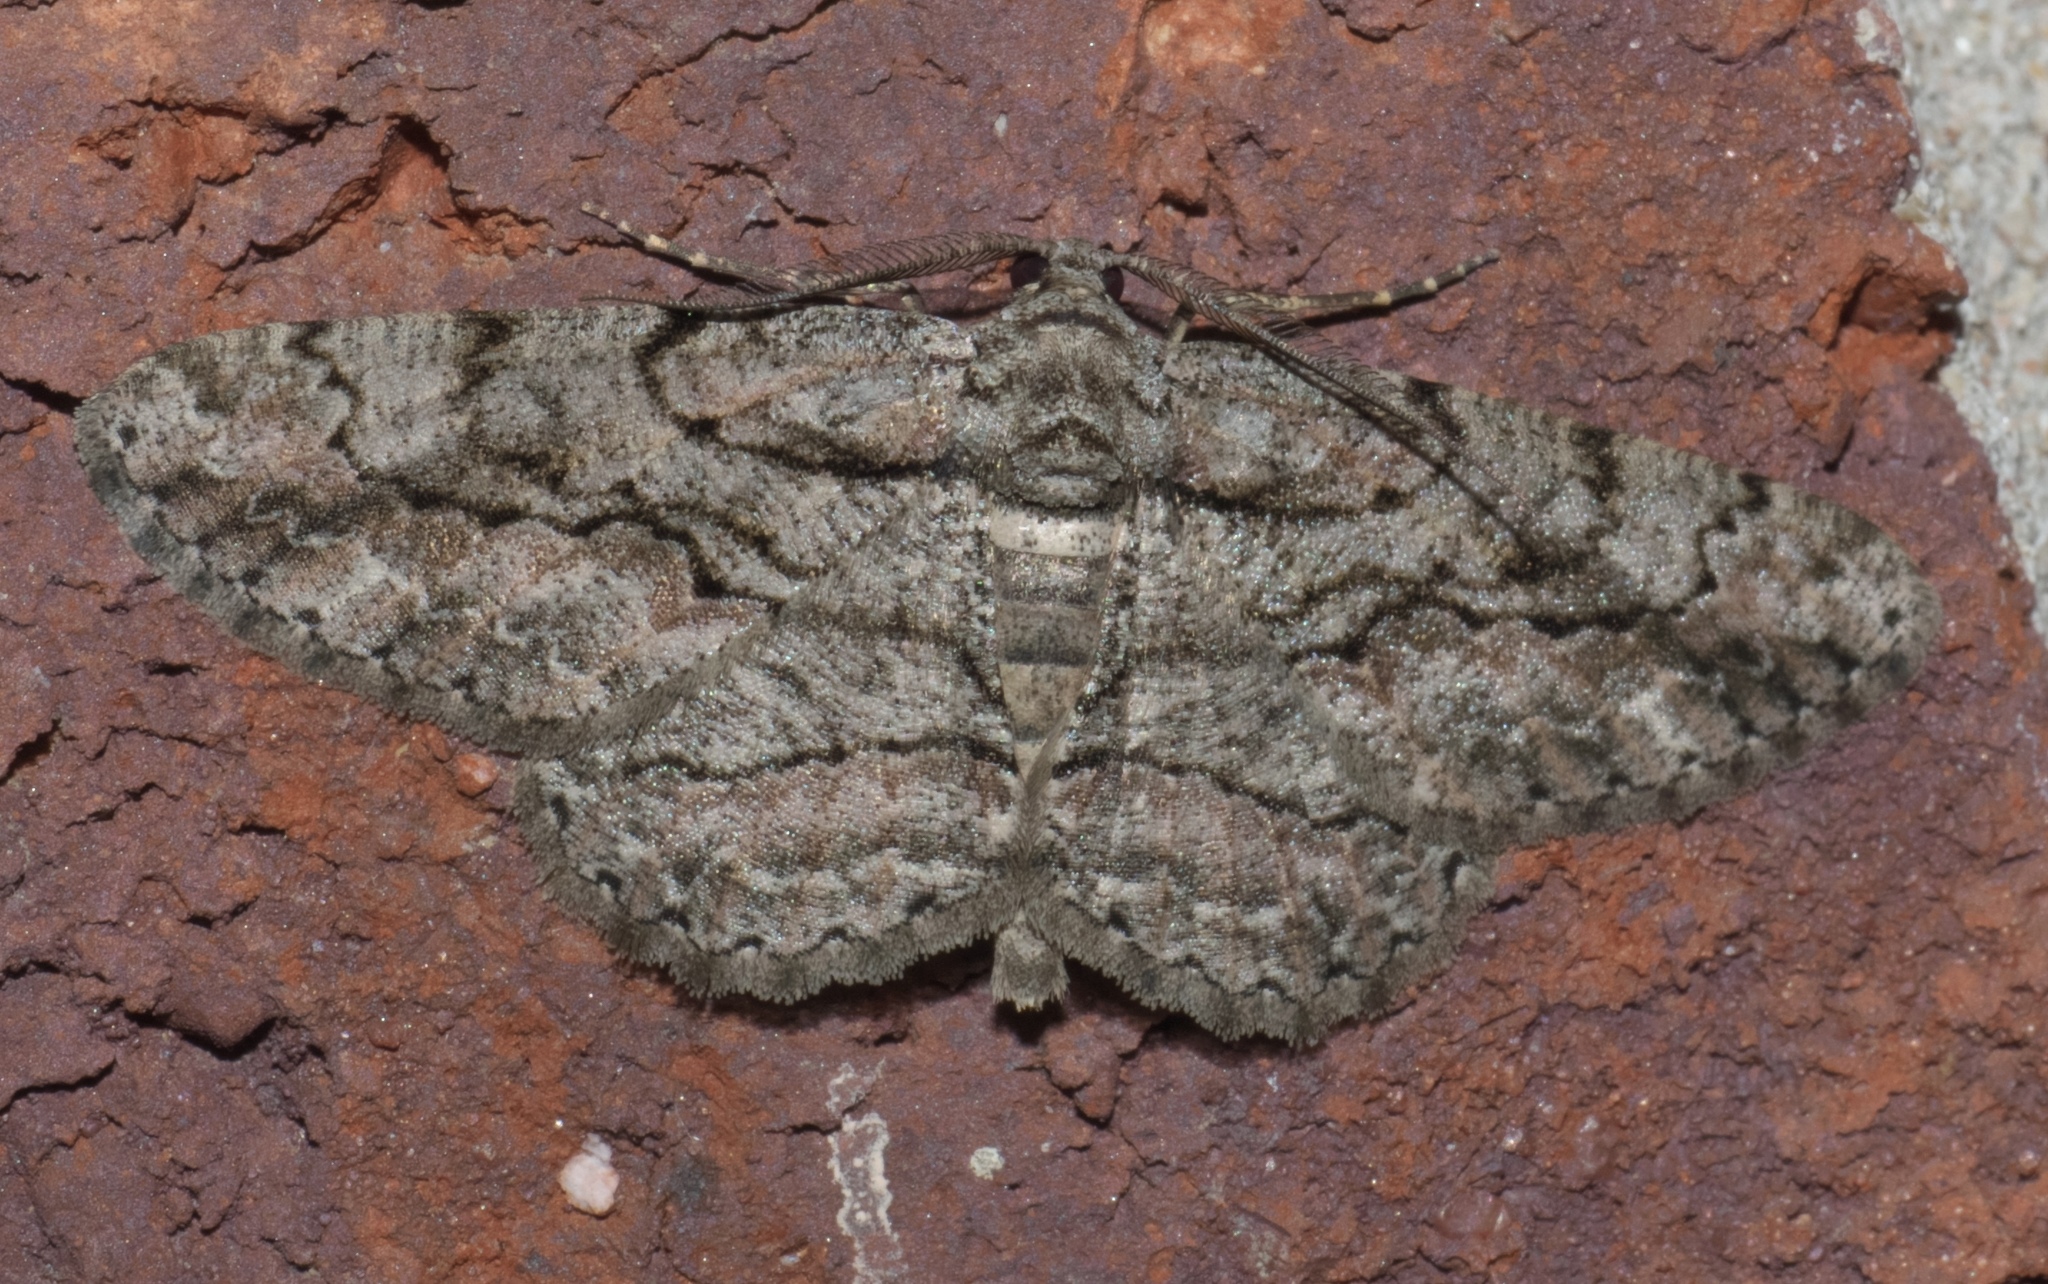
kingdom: Animalia
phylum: Arthropoda
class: Insecta
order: Lepidoptera
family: Geometridae
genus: Anavitrinella
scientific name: Anavitrinella pampinaria
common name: Common gray
